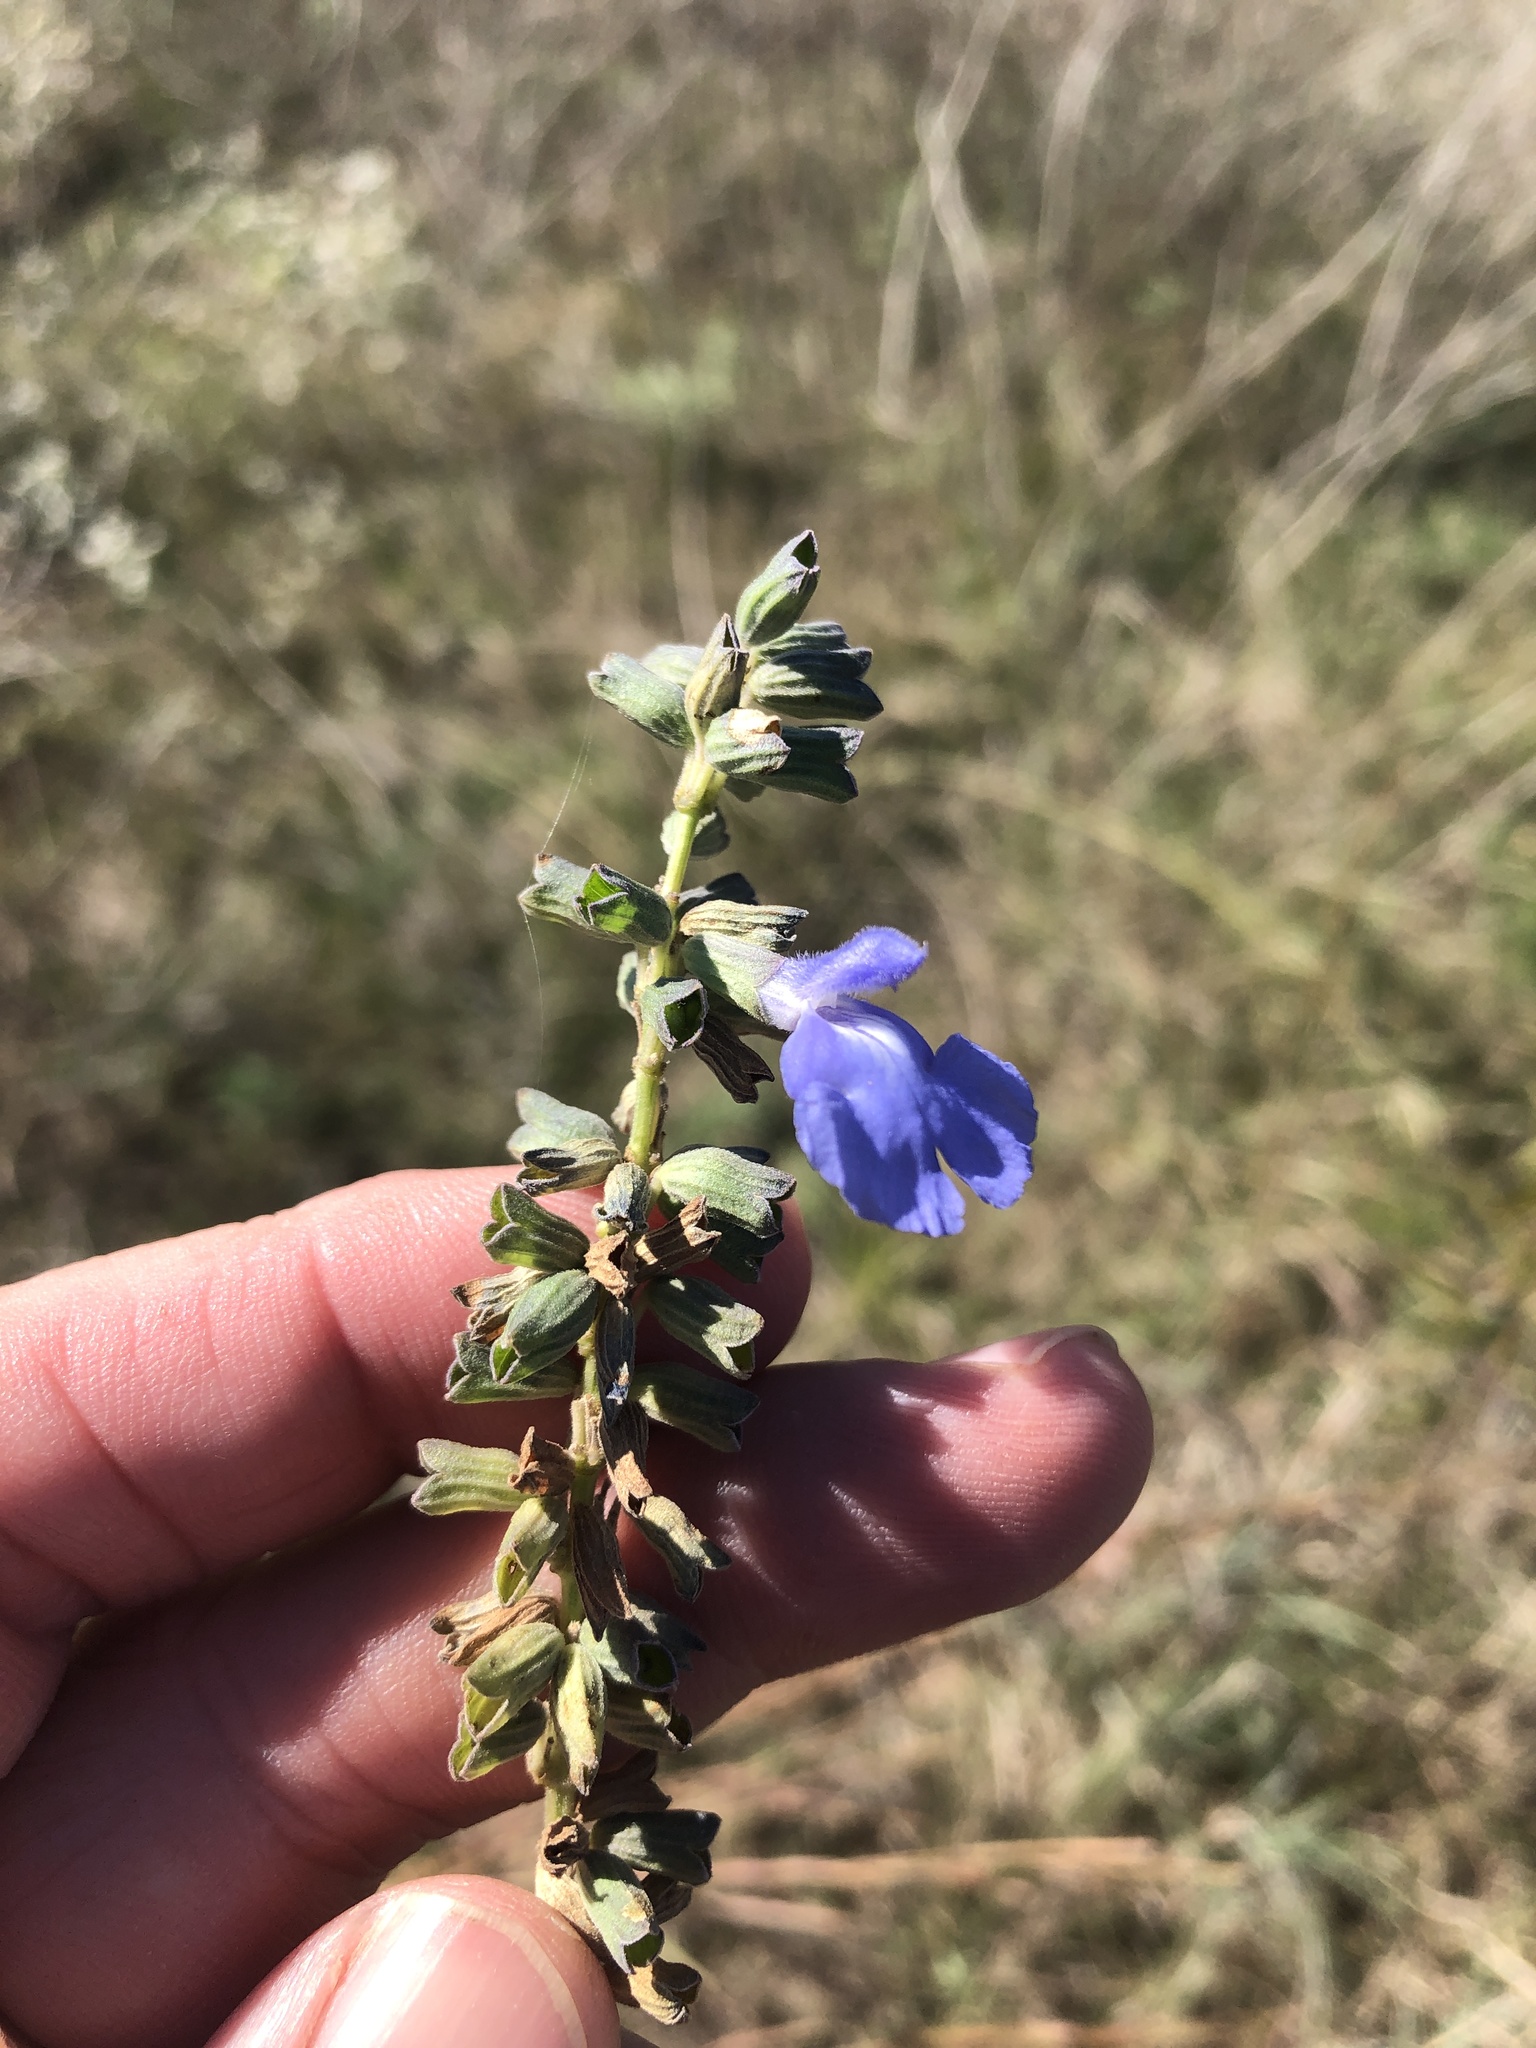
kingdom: Plantae
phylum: Tracheophyta
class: Magnoliopsida
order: Lamiales
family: Lamiaceae
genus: Salvia
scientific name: Salvia azurea
